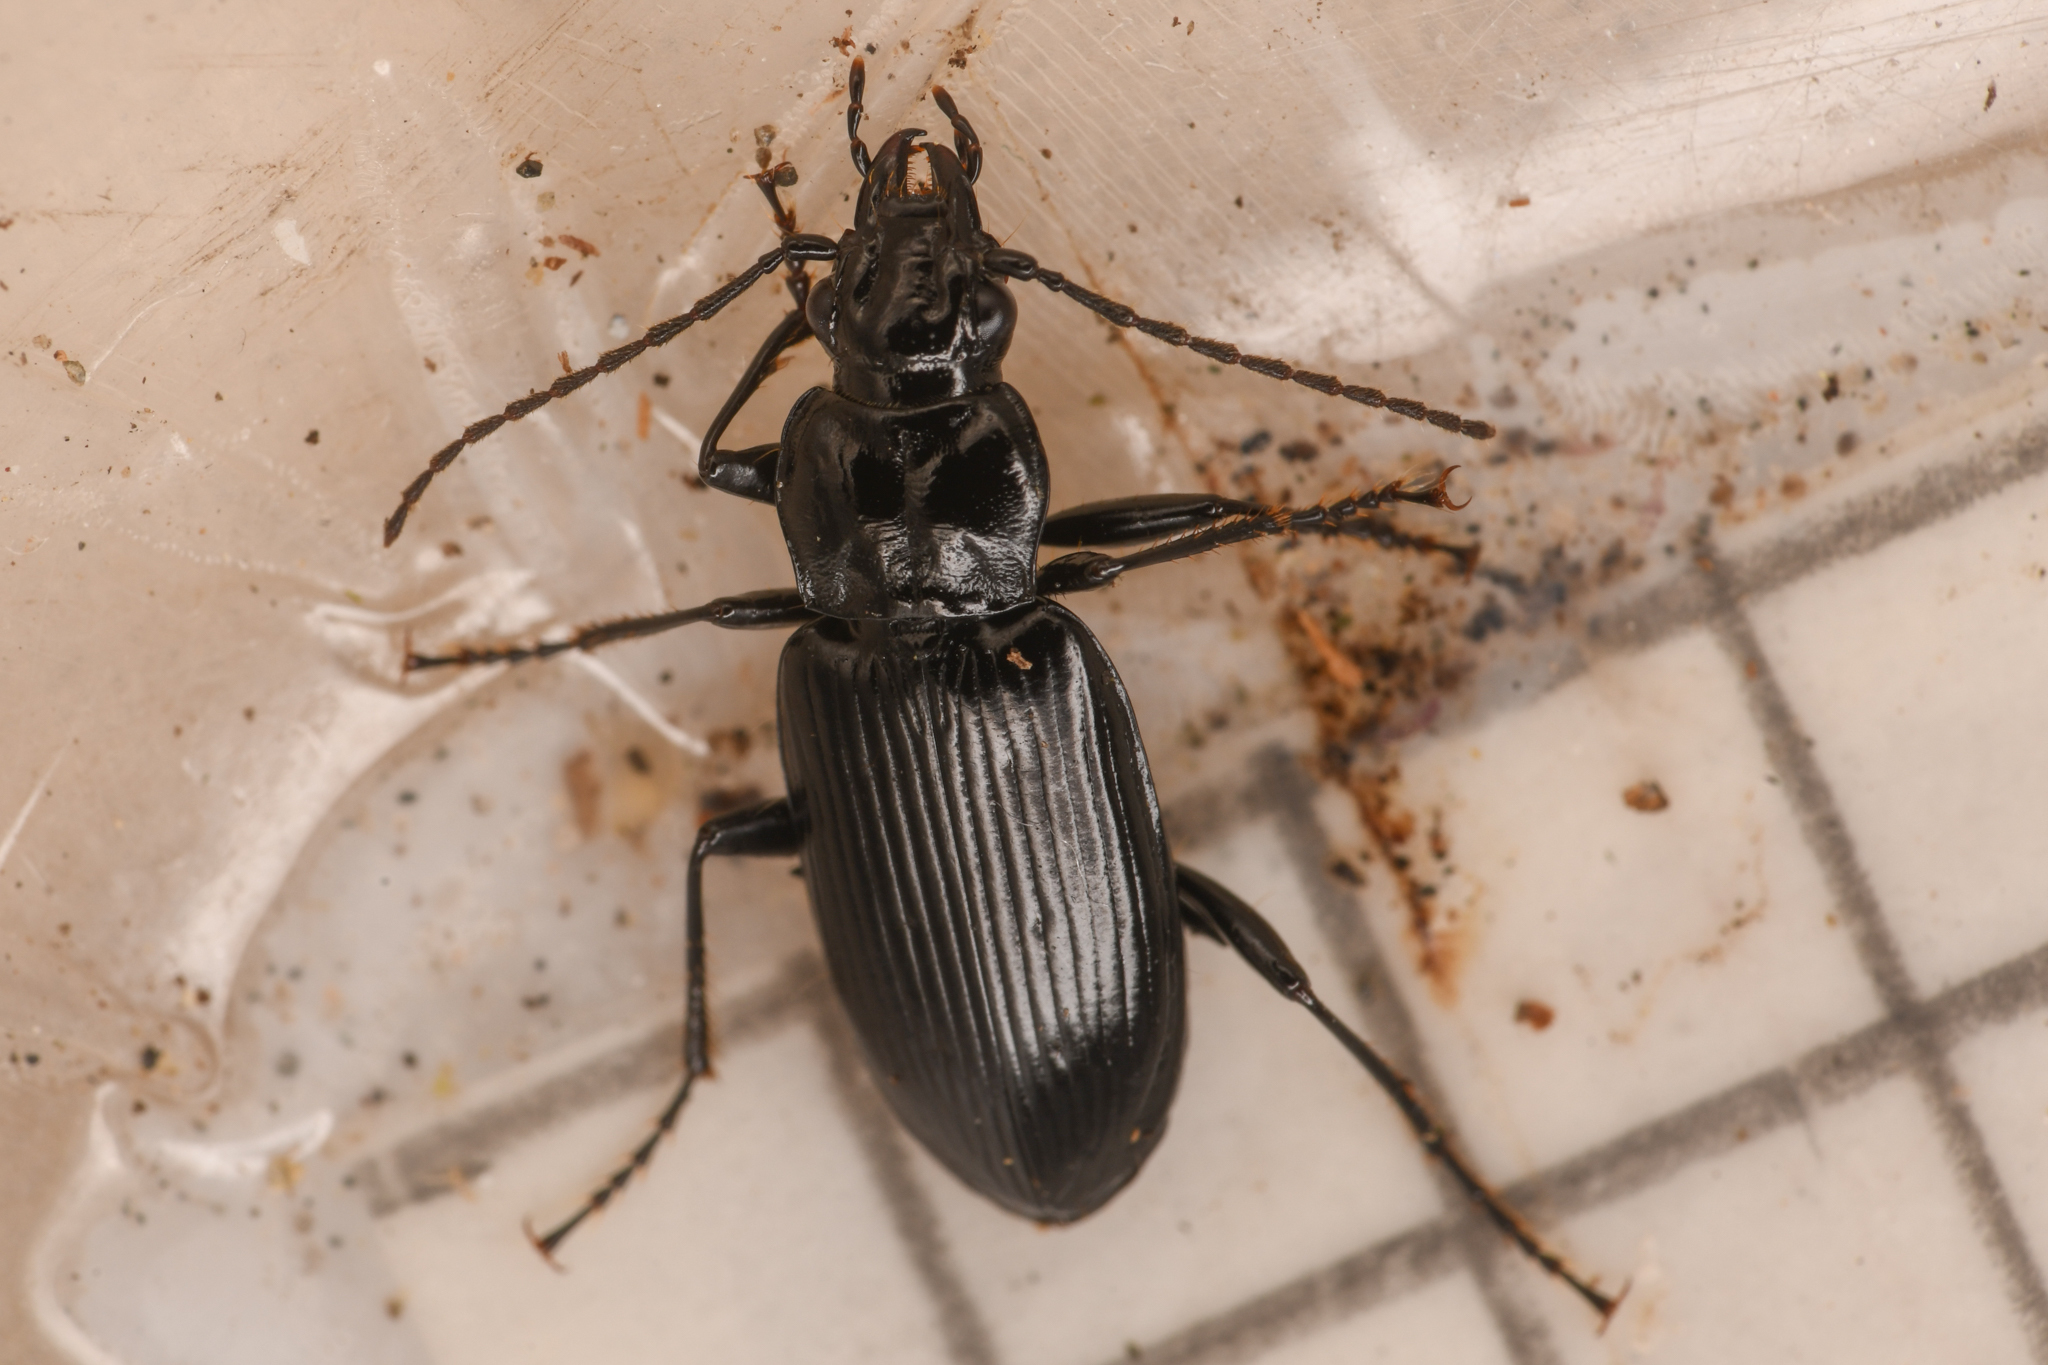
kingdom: Animalia
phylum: Arthropoda
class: Insecta
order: Coleoptera
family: Carabidae
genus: Diplous
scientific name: Diplous filicornis
